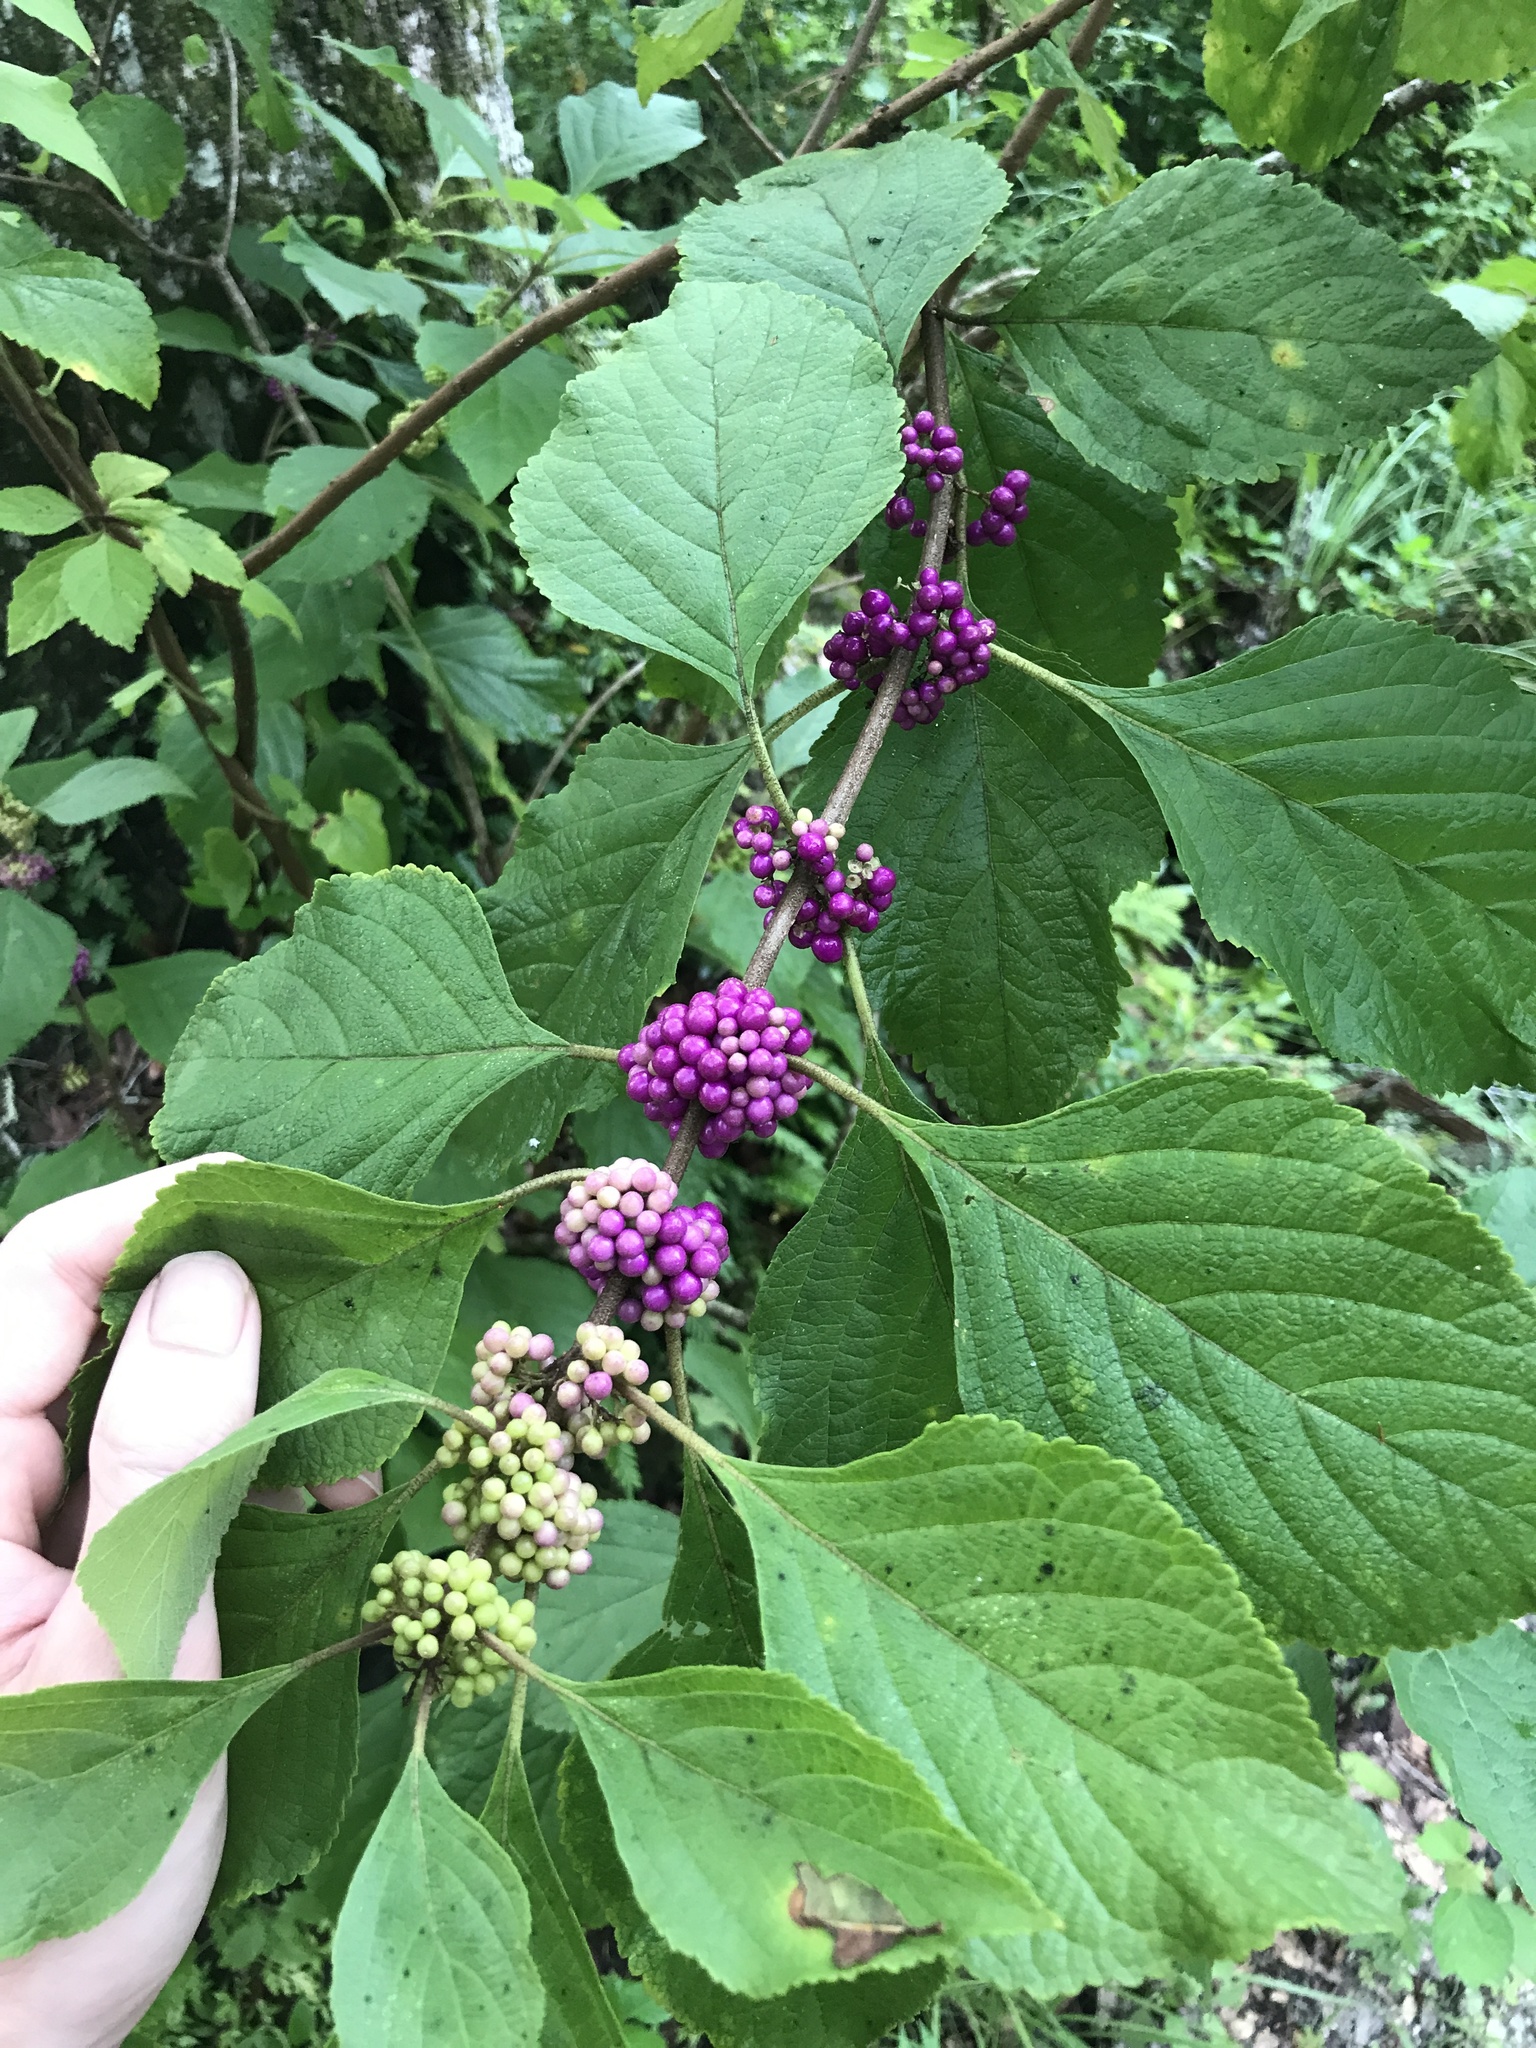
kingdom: Plantae
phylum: Tracheophyta
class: Magnoliopsida
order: Lamiales
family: Lamiaceae
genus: Callicarpa
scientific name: Callicarpa americana
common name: American beautyberry
